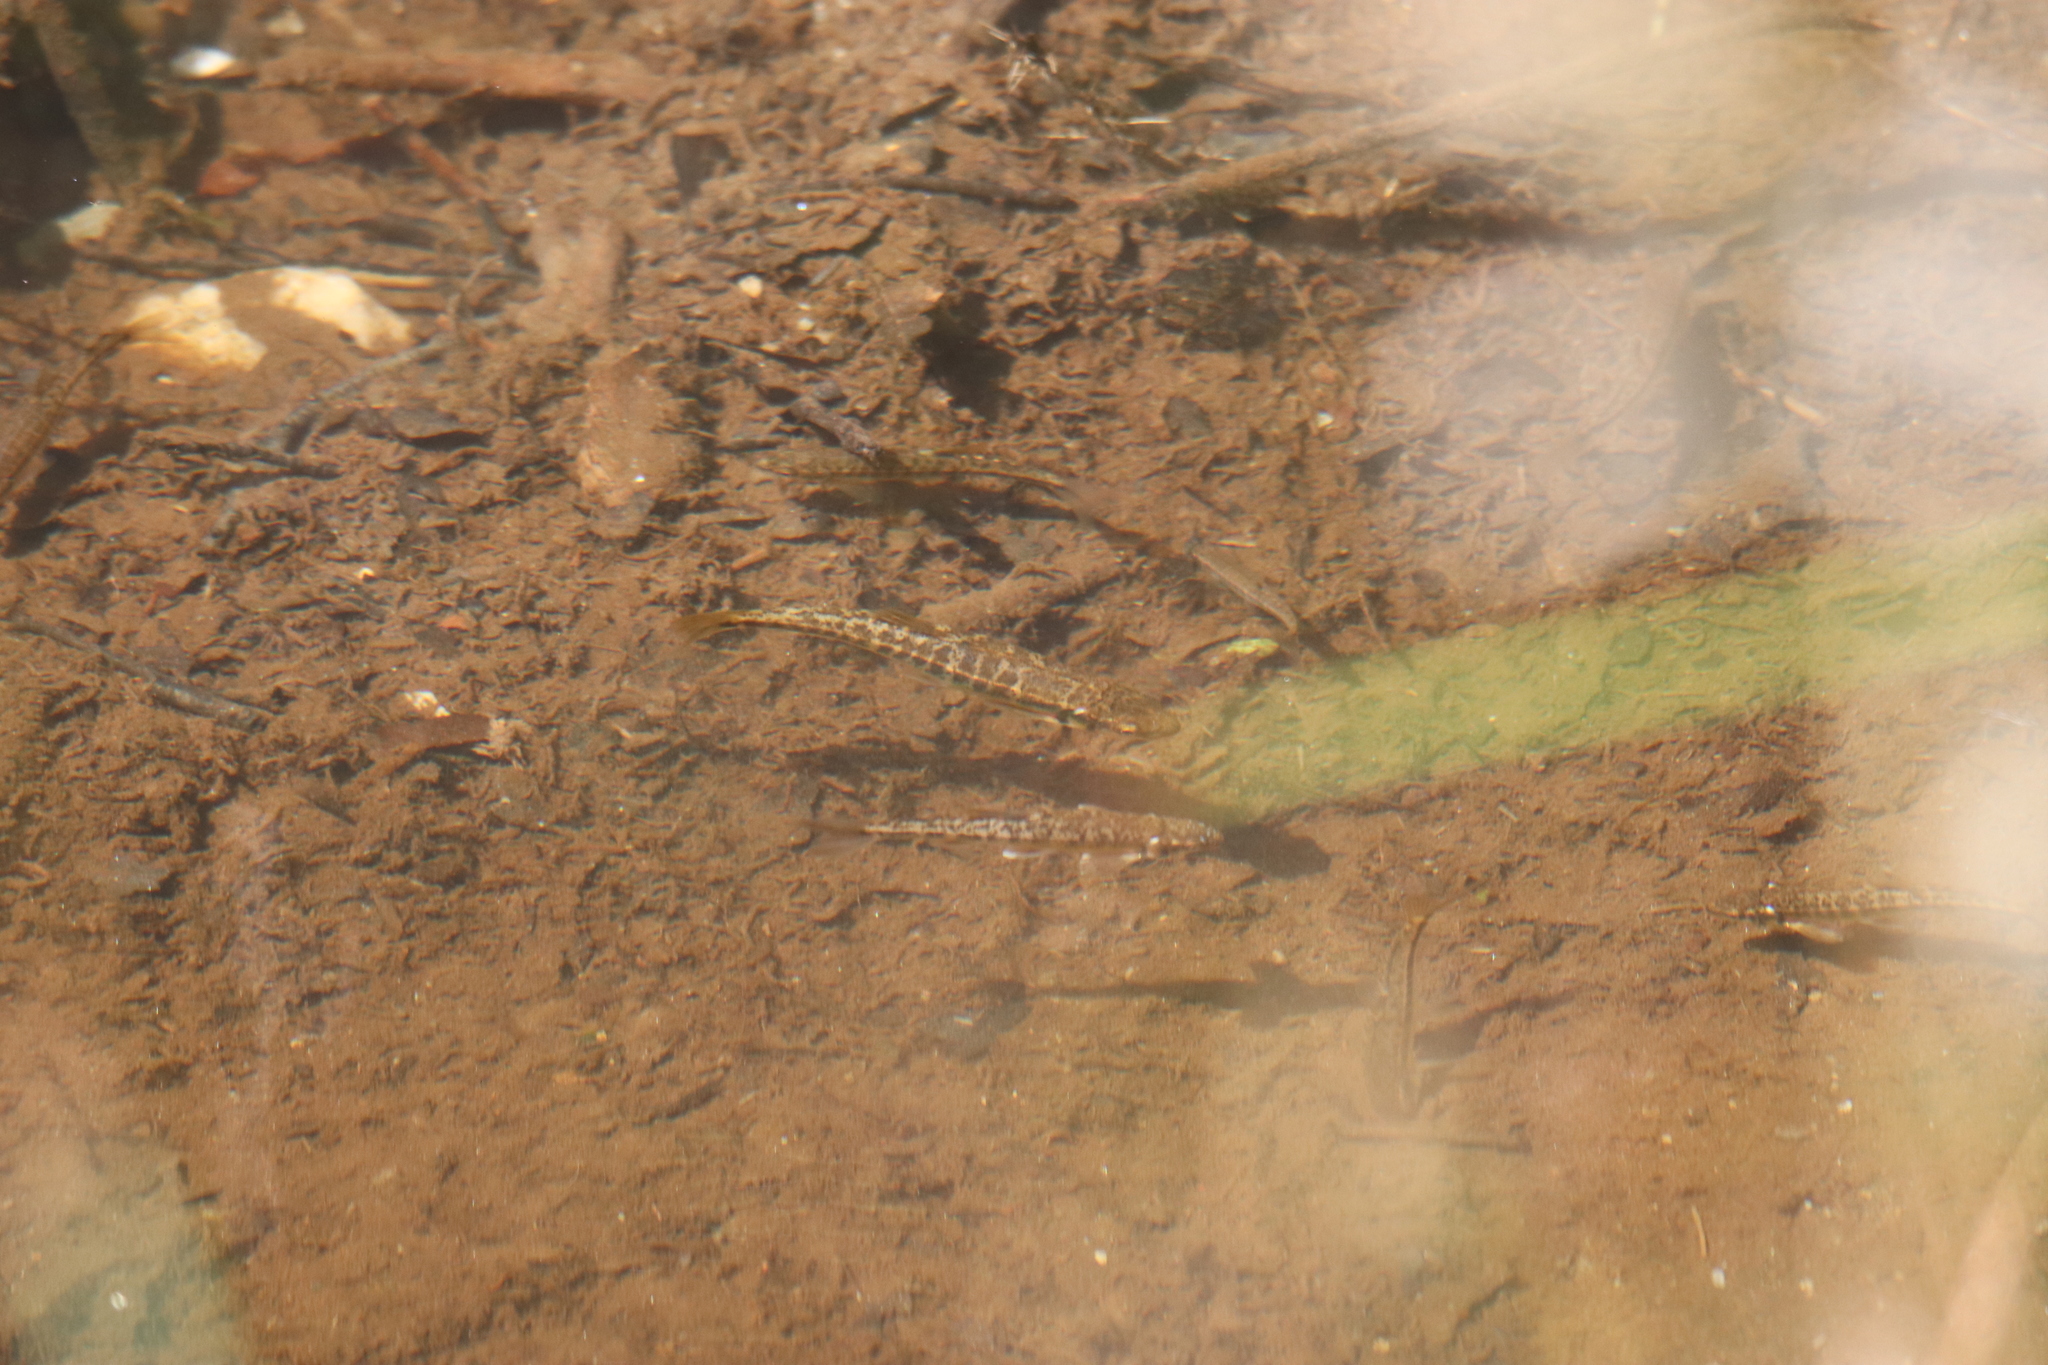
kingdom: Animalia
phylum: Chordata
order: Cypriniformes
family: Cyprinidae
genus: Phoxinus
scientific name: Phoxinus septimaniae
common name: Languedoc minnow
